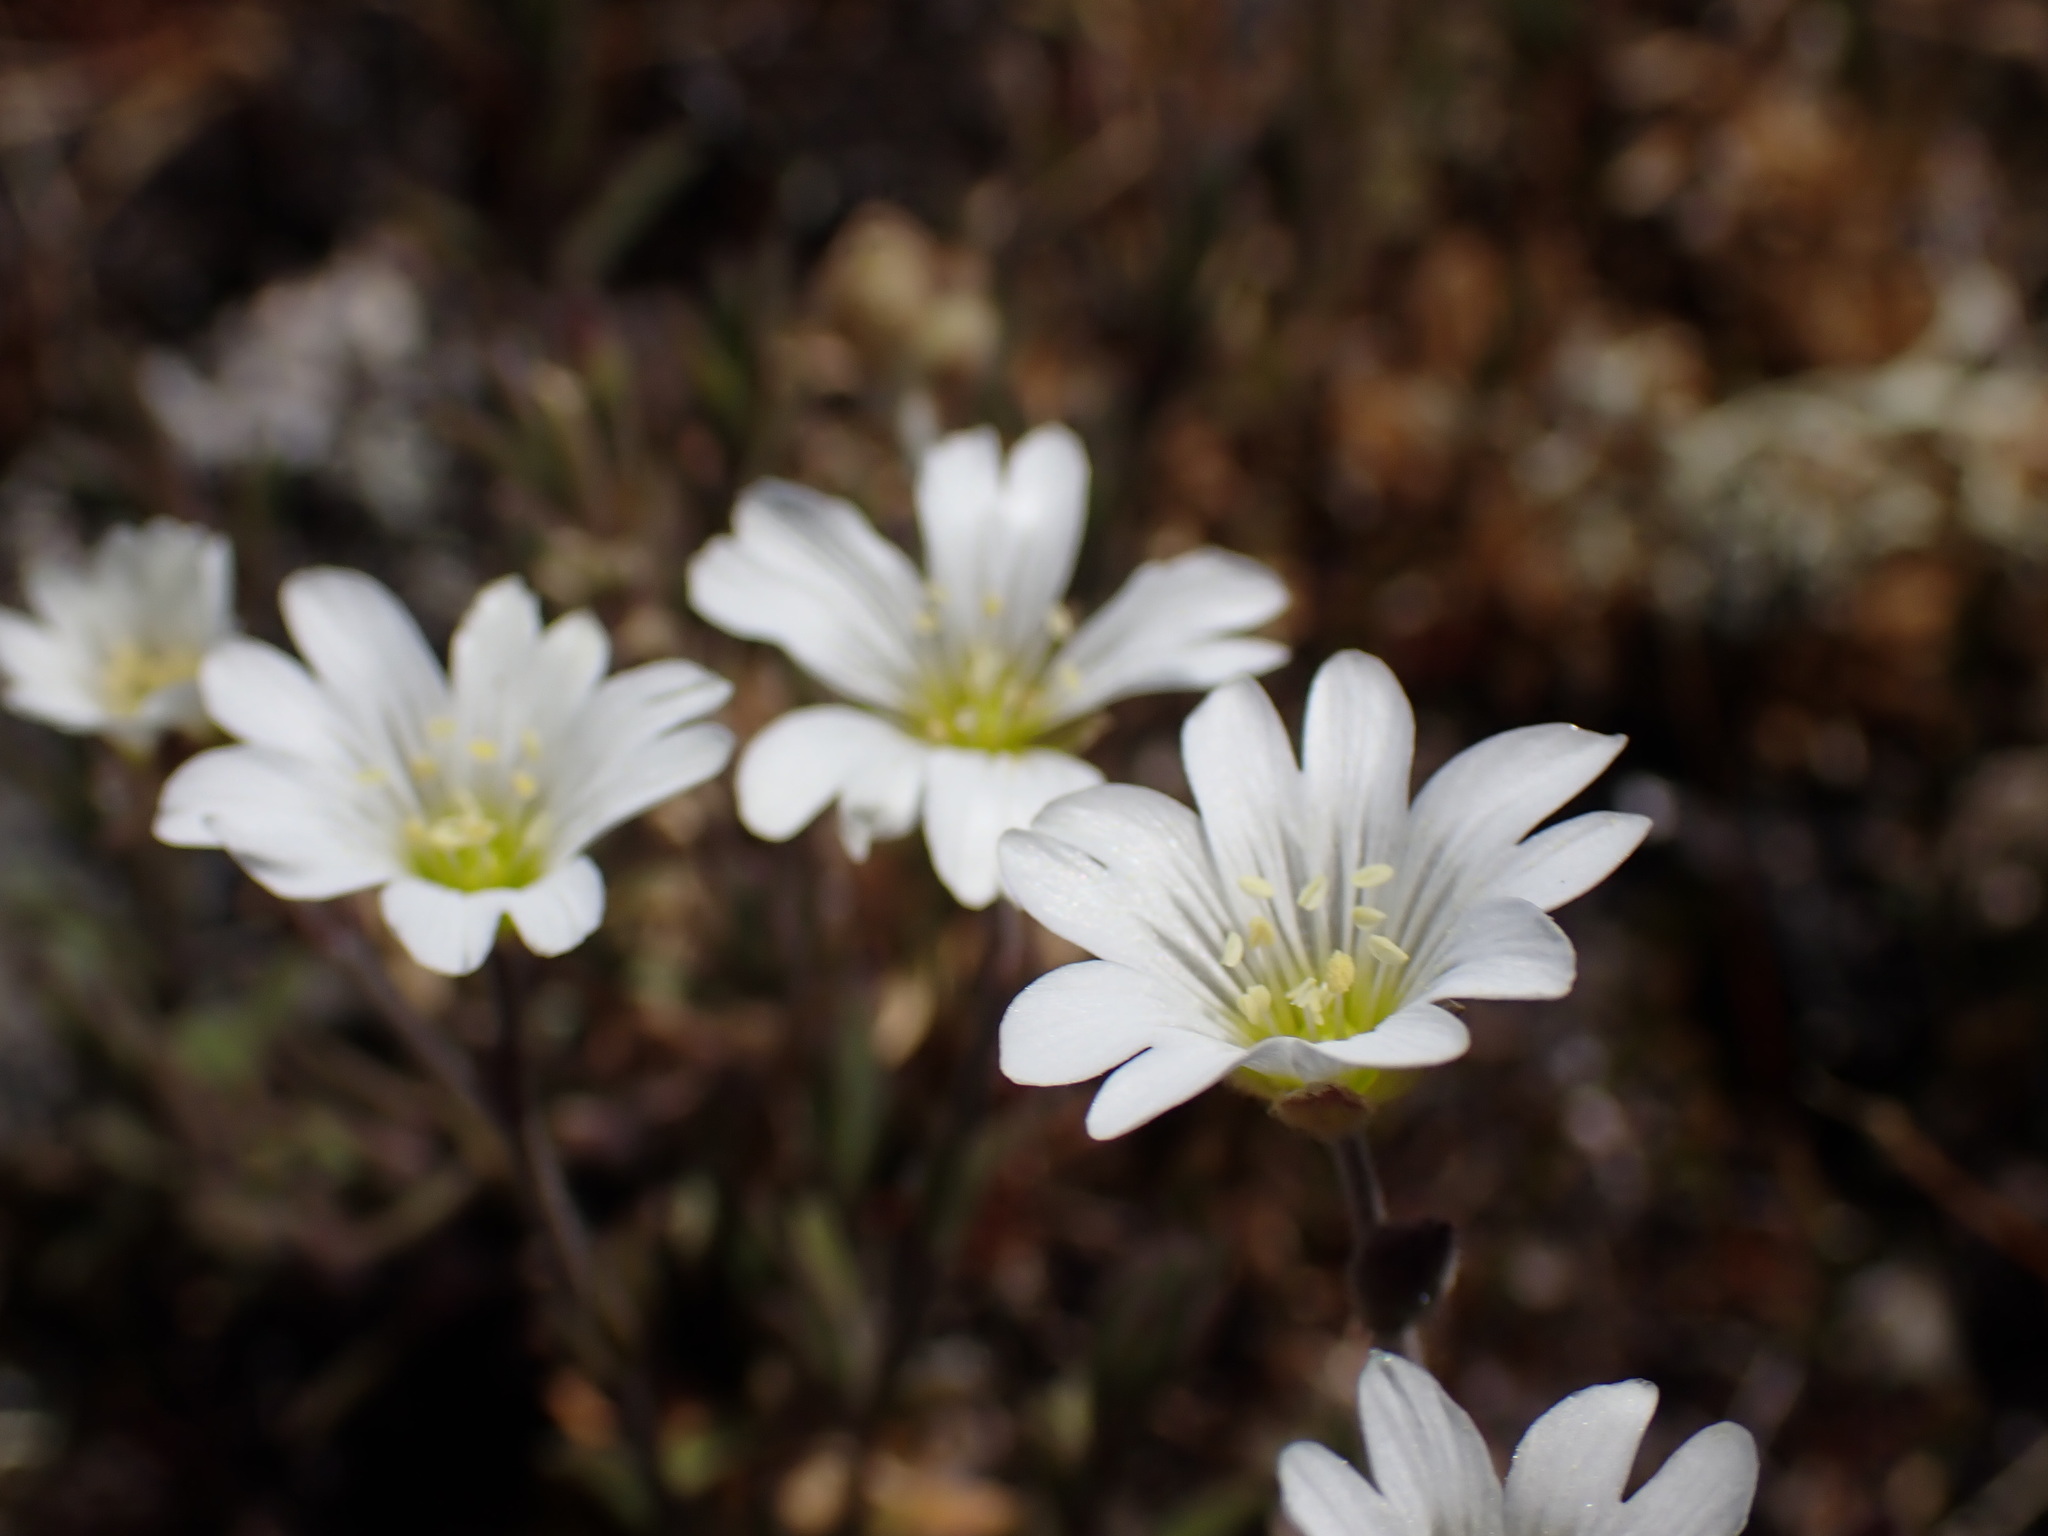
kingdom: Plantae
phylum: Tracheophyta
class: Magnoliopsida
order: Caryophyllales
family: Caryophyllaceae
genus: Cerastium
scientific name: Cerastium arvense
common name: Field mouse-ear
